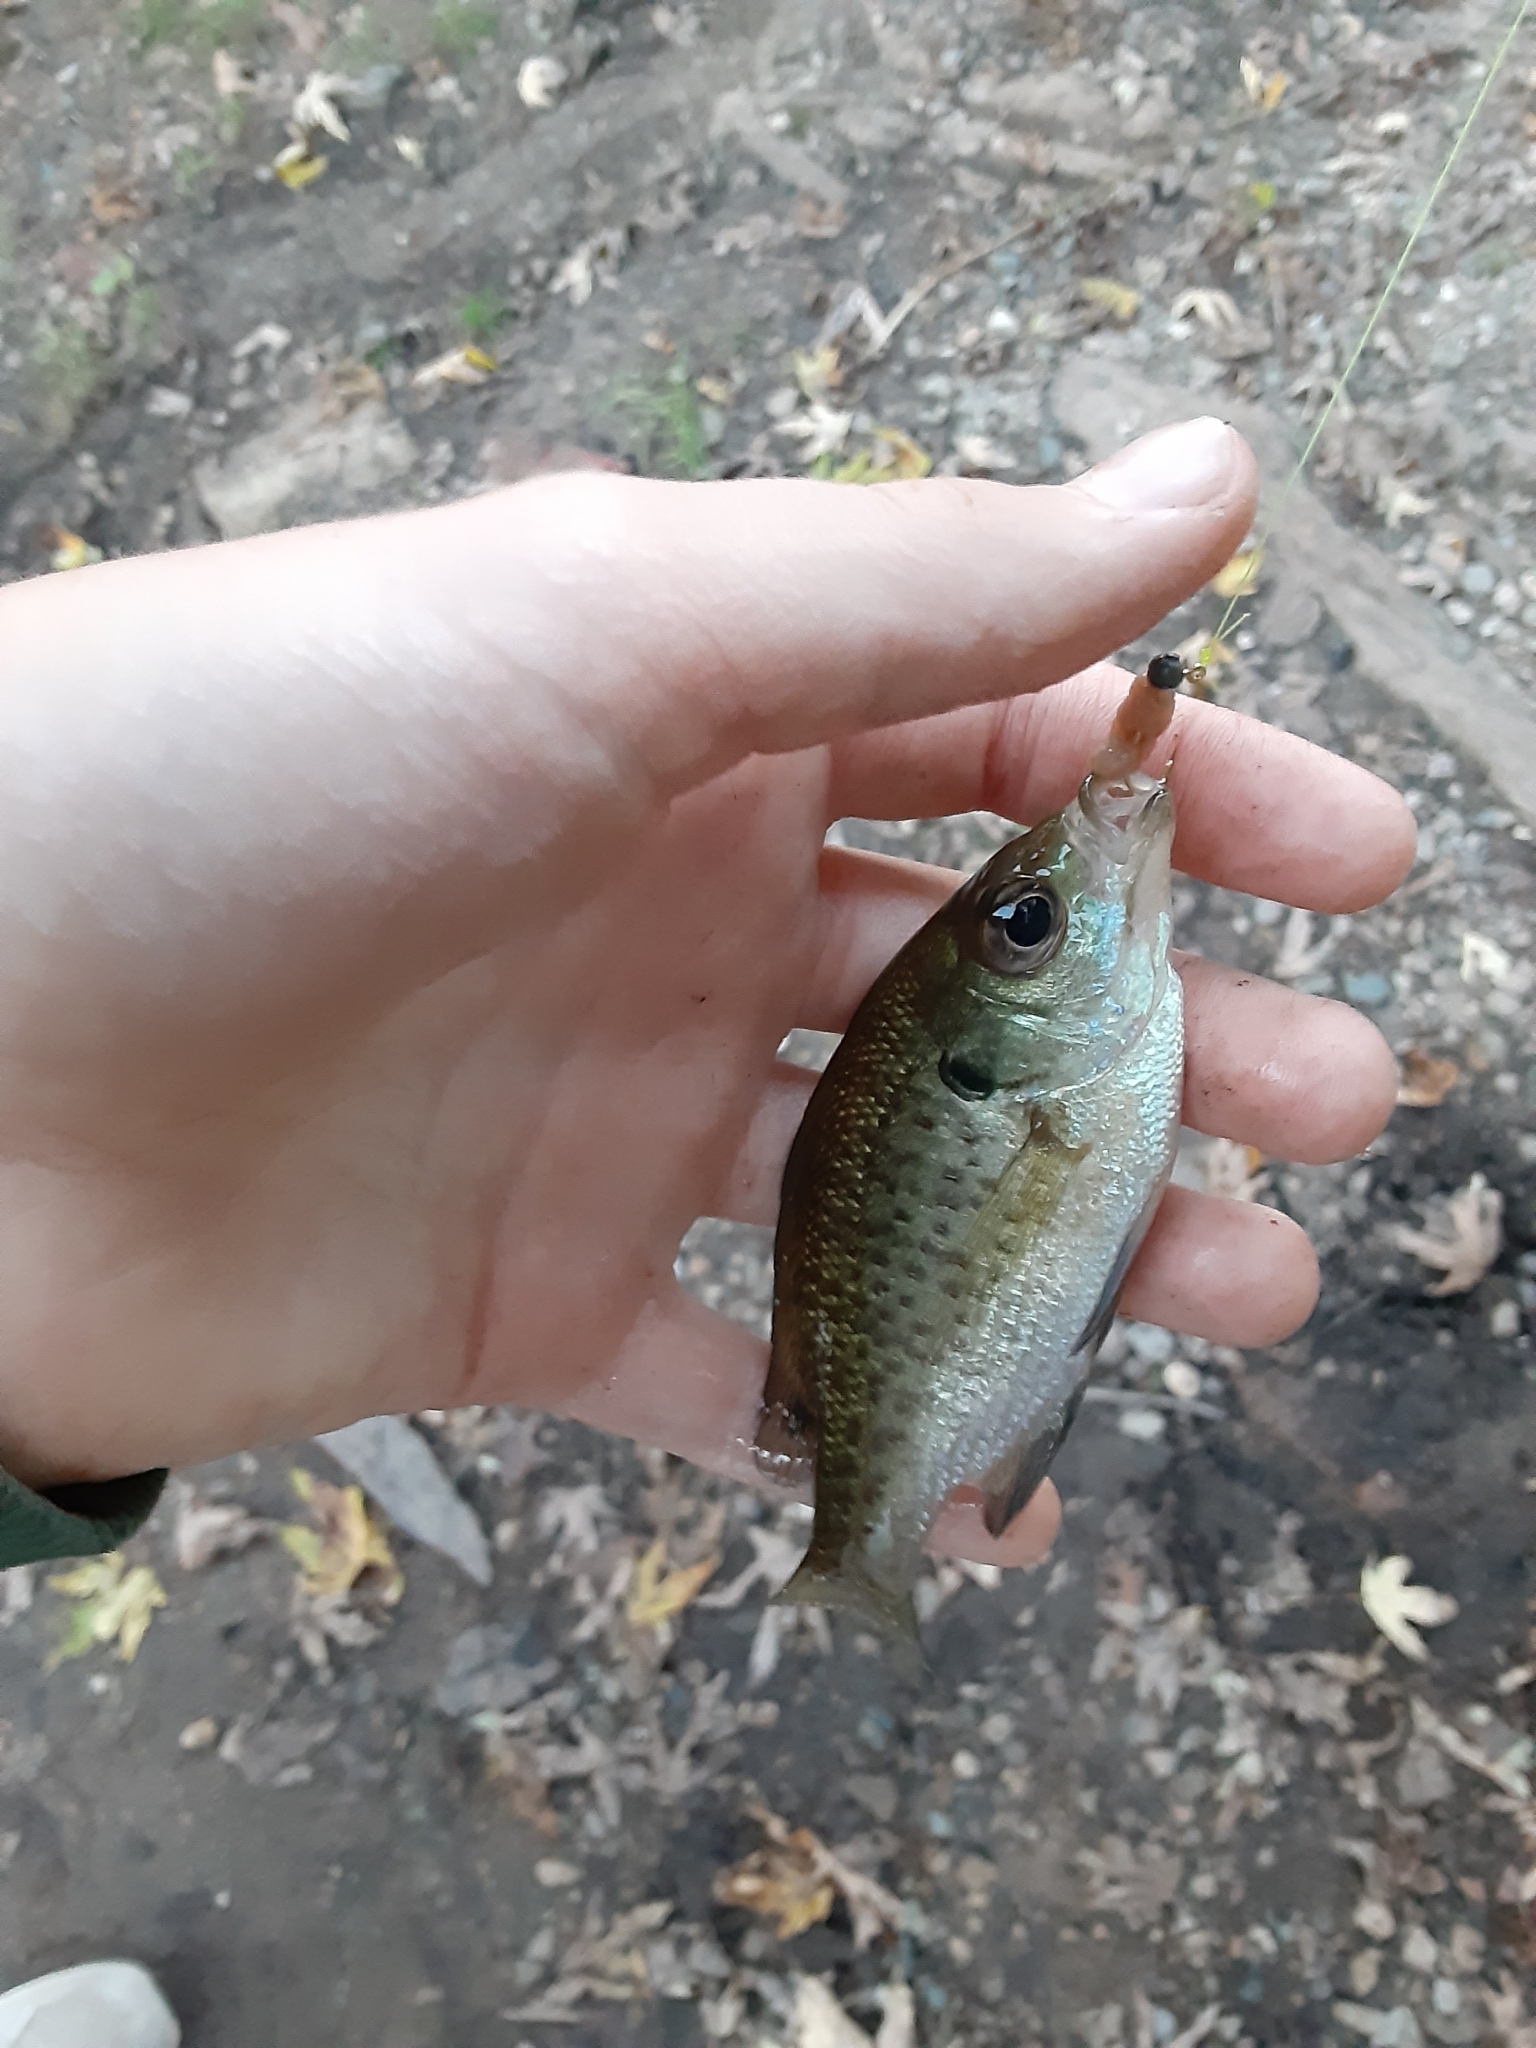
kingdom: Animalia
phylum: Chordata
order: Perciformes
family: Centrarchidae
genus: Lepomis
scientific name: Lepomis macrochirus
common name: Bluegill
